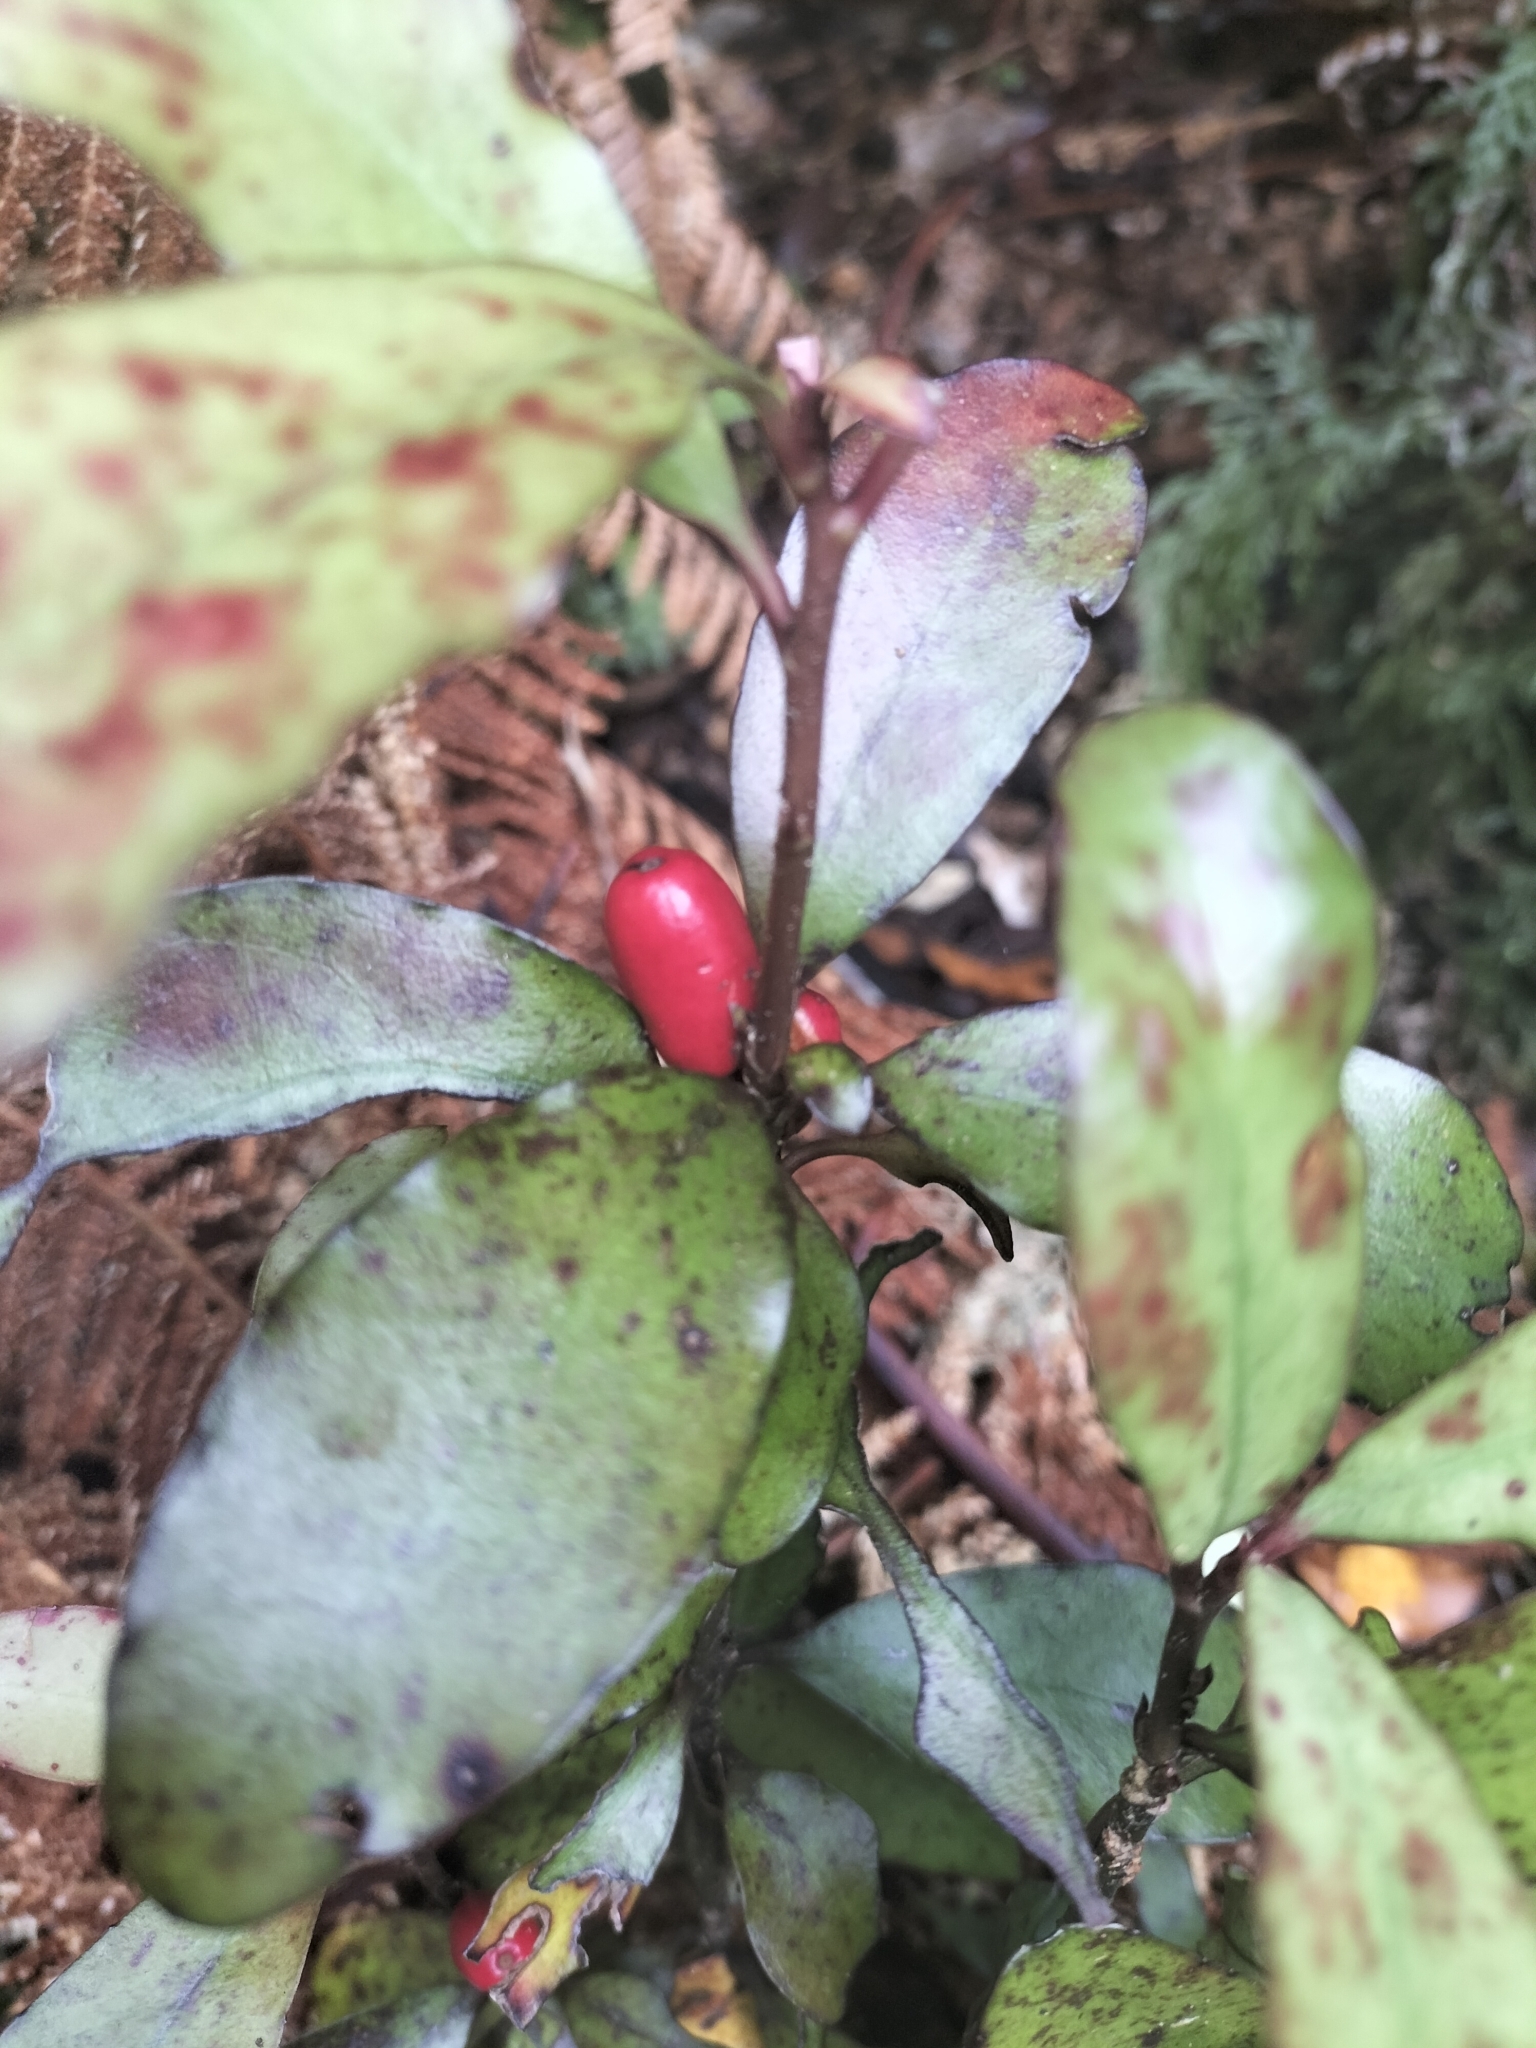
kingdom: Plantae
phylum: Tracheophyta
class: Magnoliopsida
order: Asterales
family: Alseuosmiaceae
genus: Alseuosmia
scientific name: Alseuosmia pusilla
